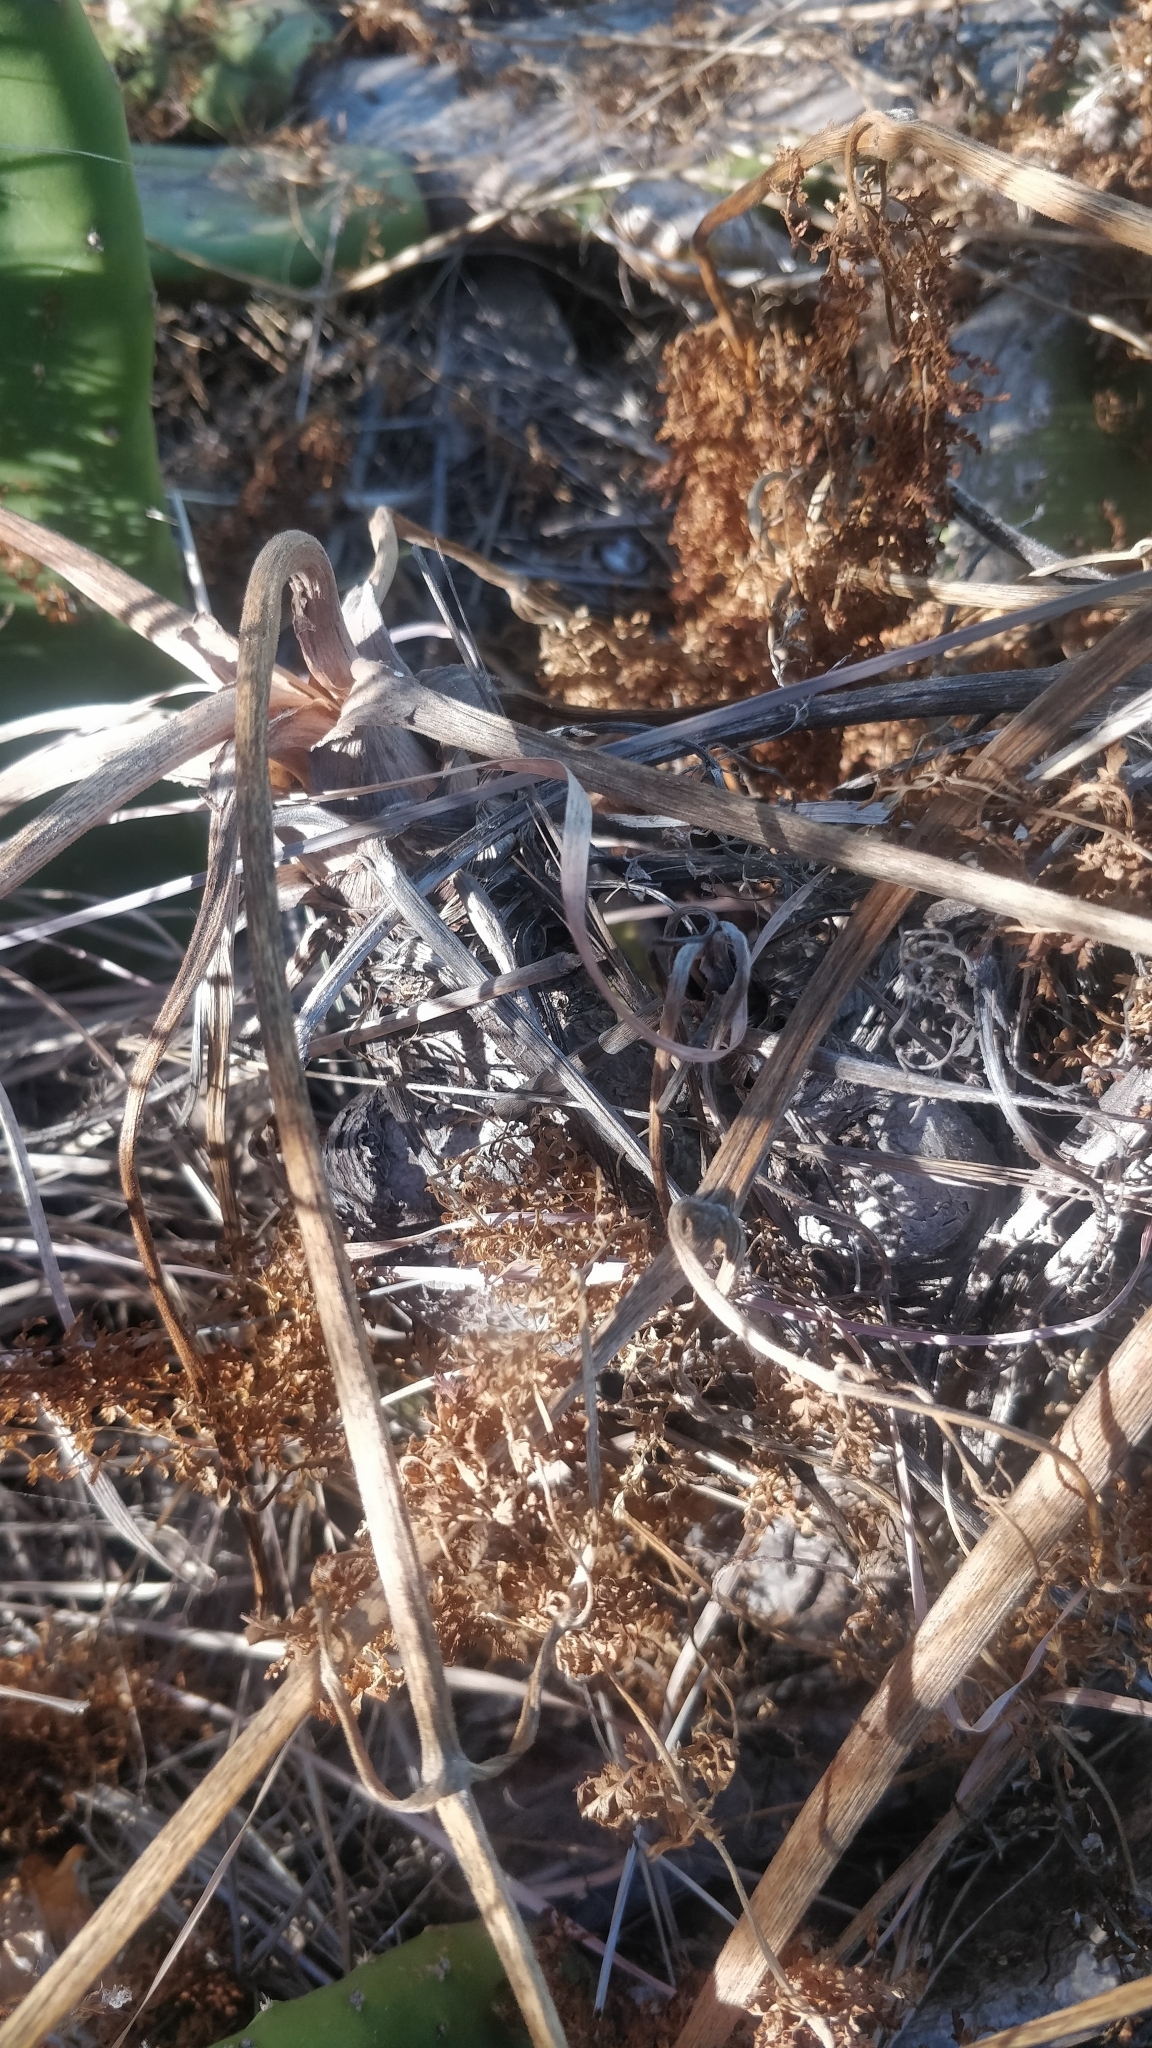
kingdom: Plantae
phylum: Tracheophyta
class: Magnoliopsida
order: Apiales
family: Apiaceae
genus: Daucus
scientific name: Daucus edulis
